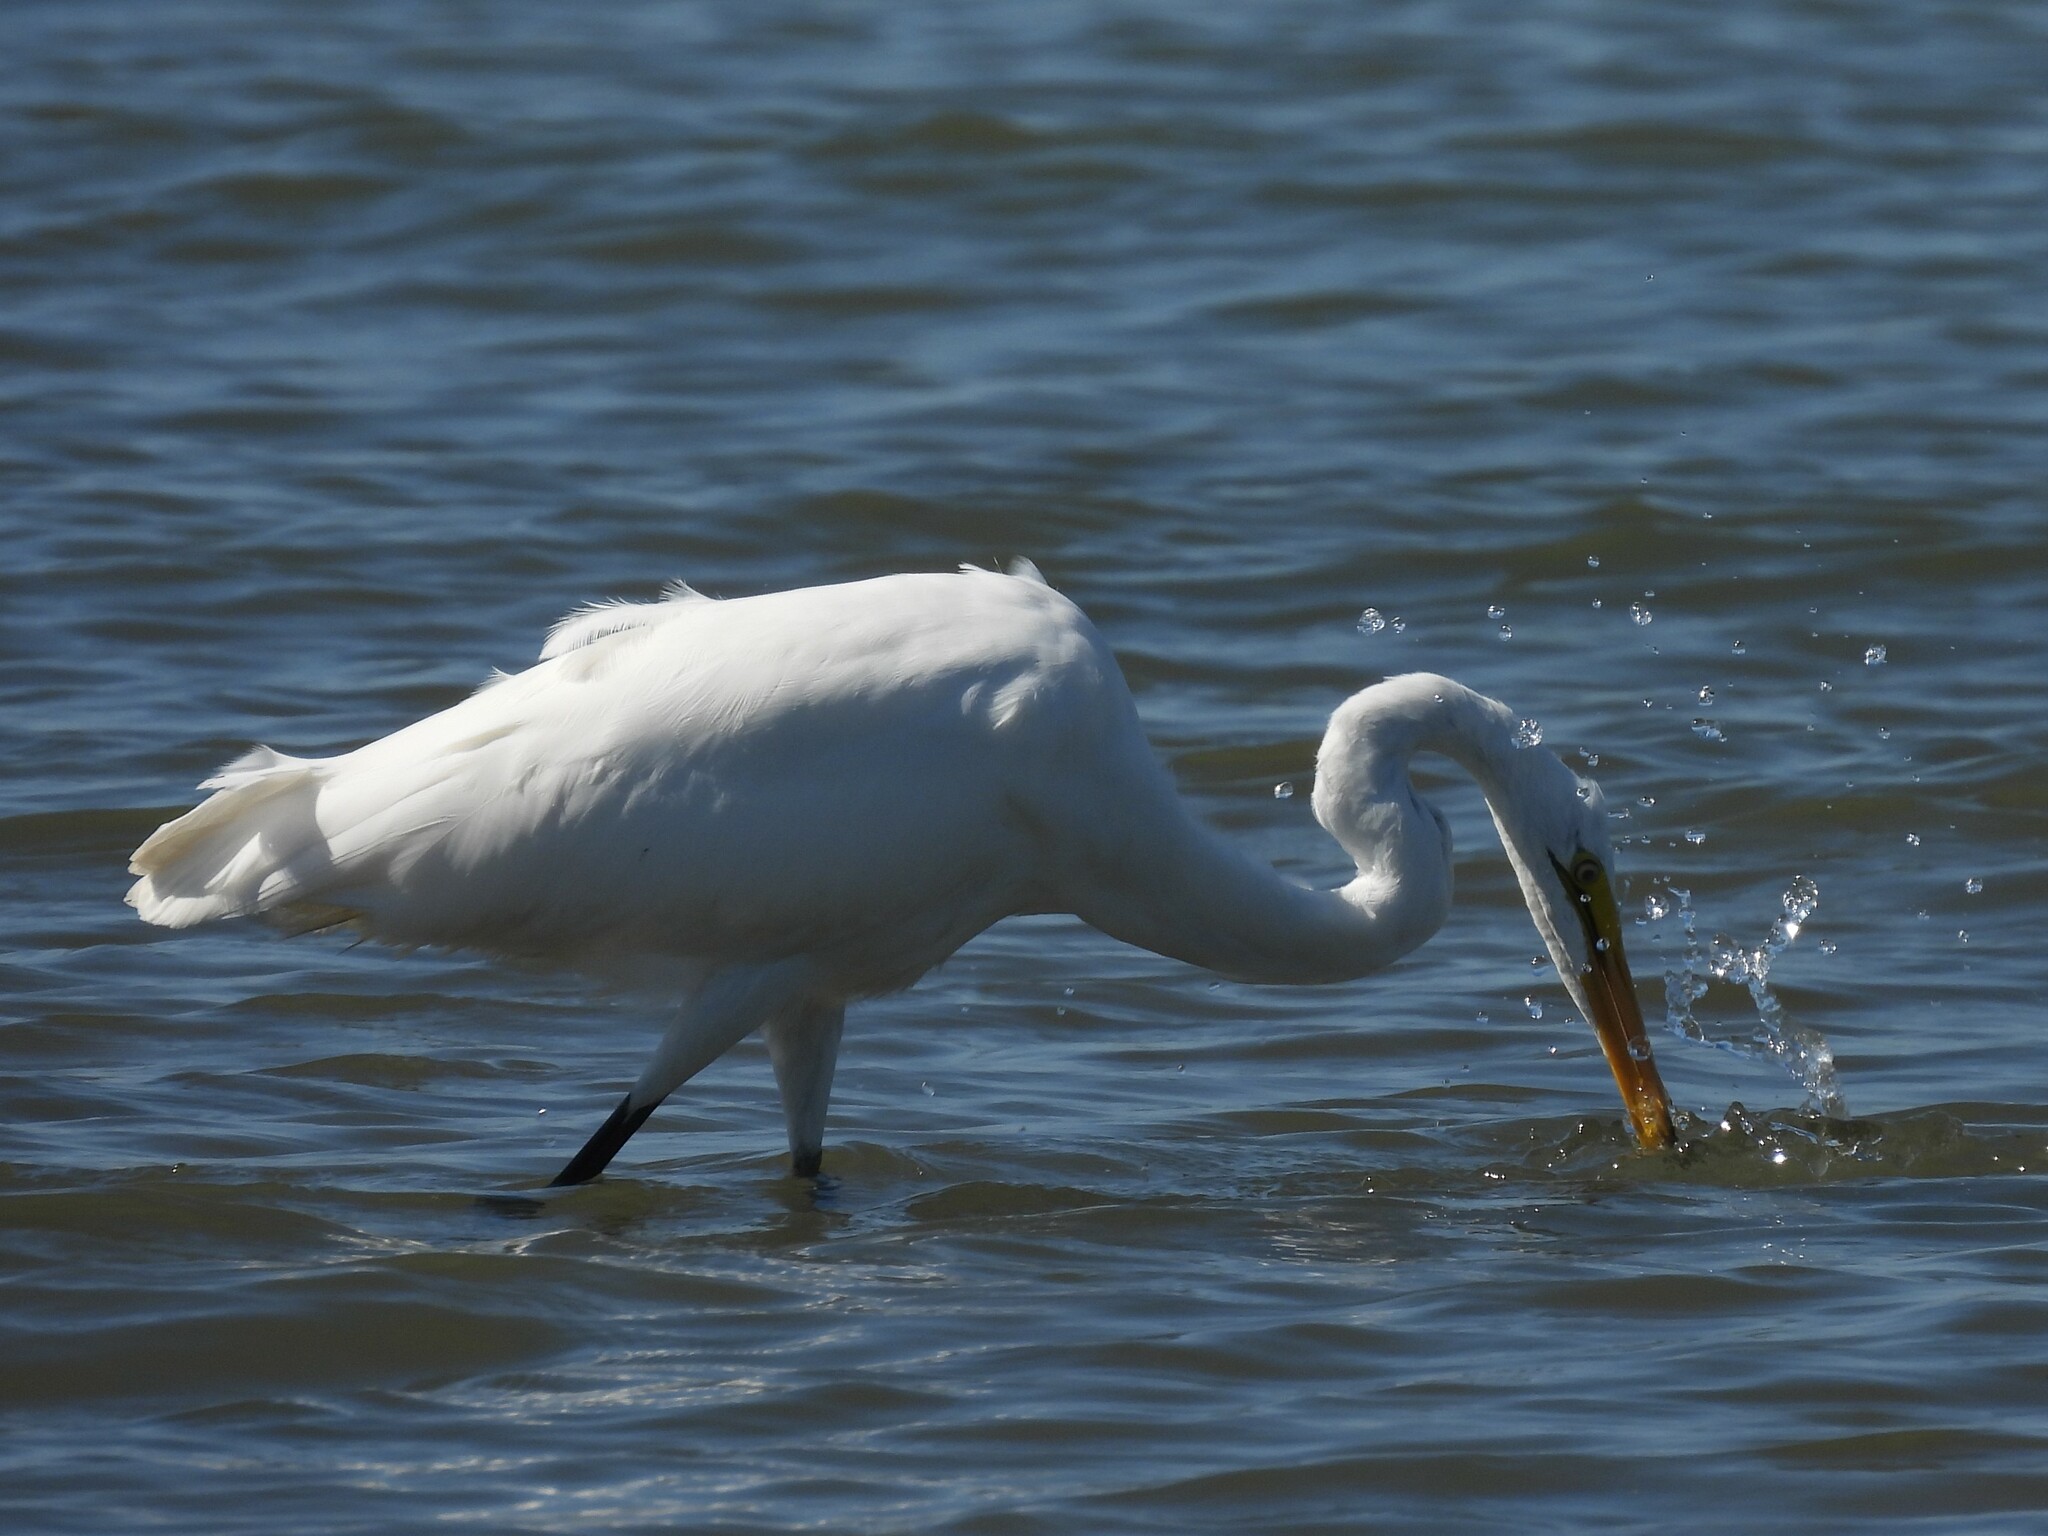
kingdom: Animalia
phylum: Chordata
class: Aves
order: Pelecaniformes
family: Ardeidae
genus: Ardea
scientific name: Ardea alba
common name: Great egret
